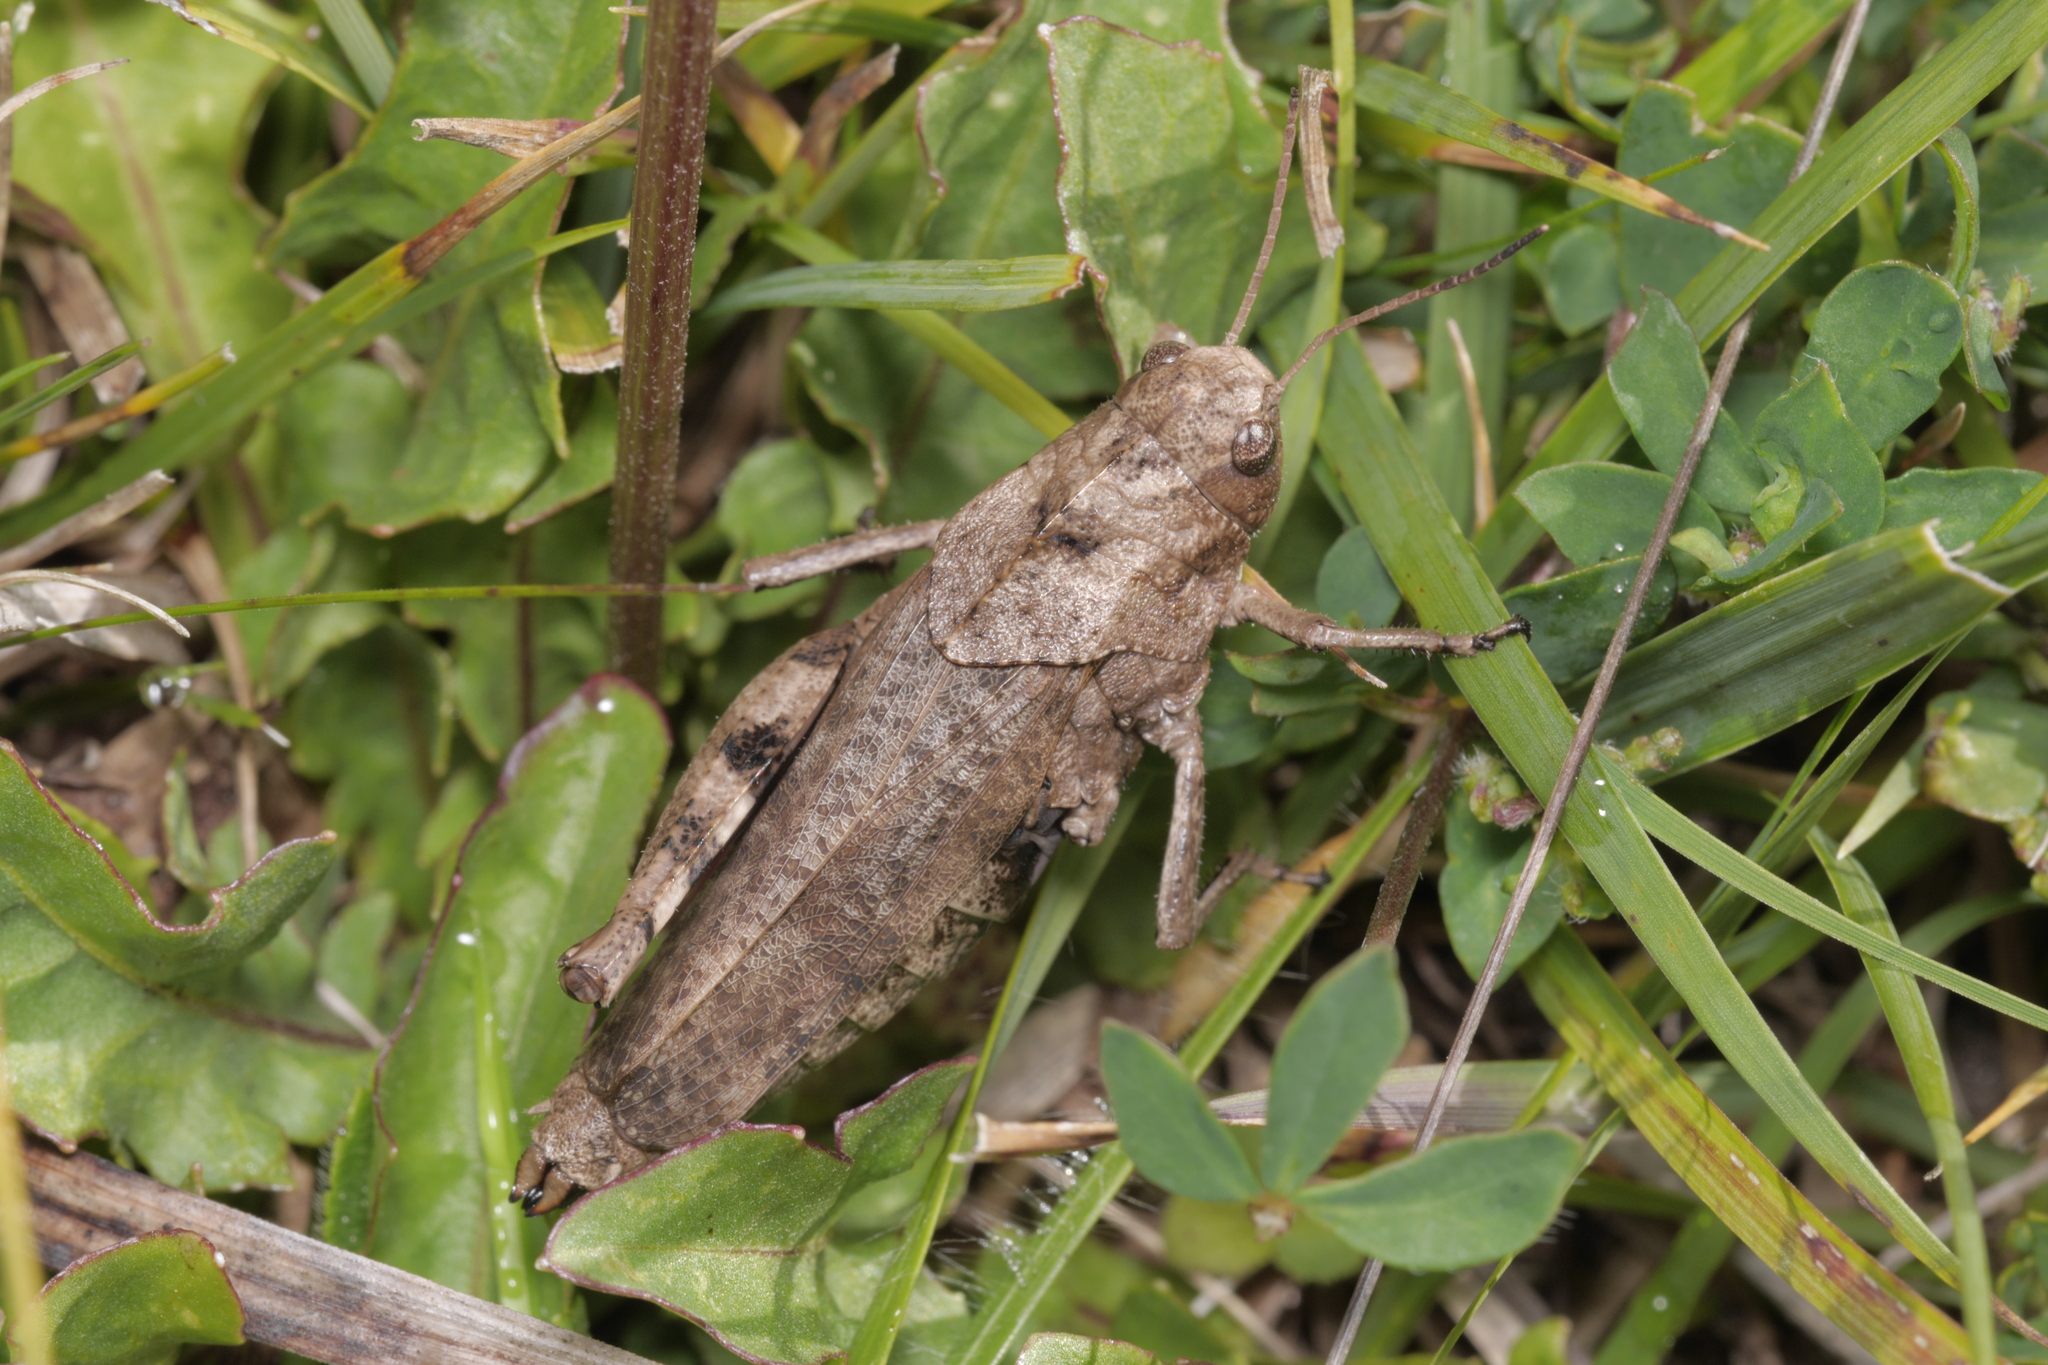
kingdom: Animalia
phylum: Arthropoda
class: Insecta
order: Orthoptera
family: Acrididae
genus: Psophus
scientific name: Psophus stridulus
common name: Rattle grasshopper
